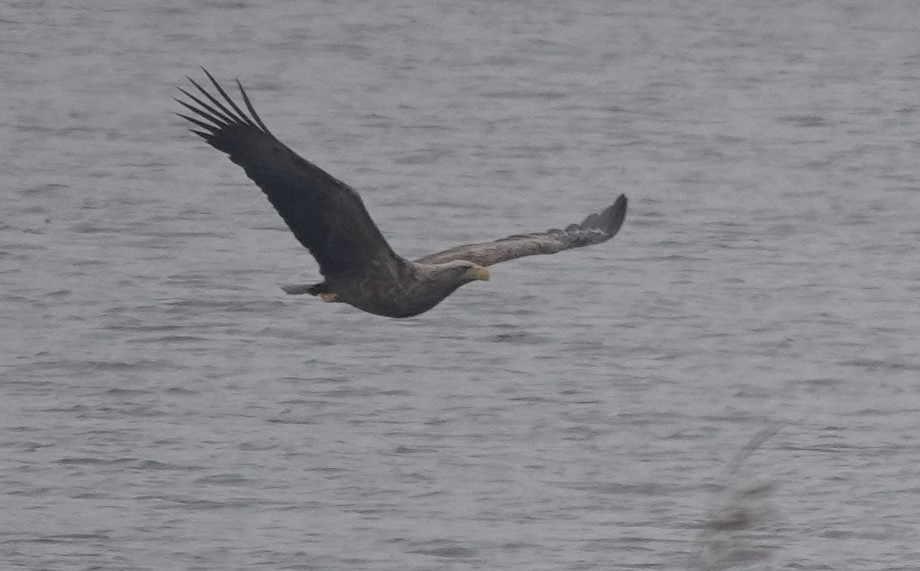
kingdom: Animalia
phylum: Chordata
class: Aves
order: Accipitriformes
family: Accipitridae
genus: Haliaeetus
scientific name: Haliaeetus albicilla
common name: White-tailed eagle
